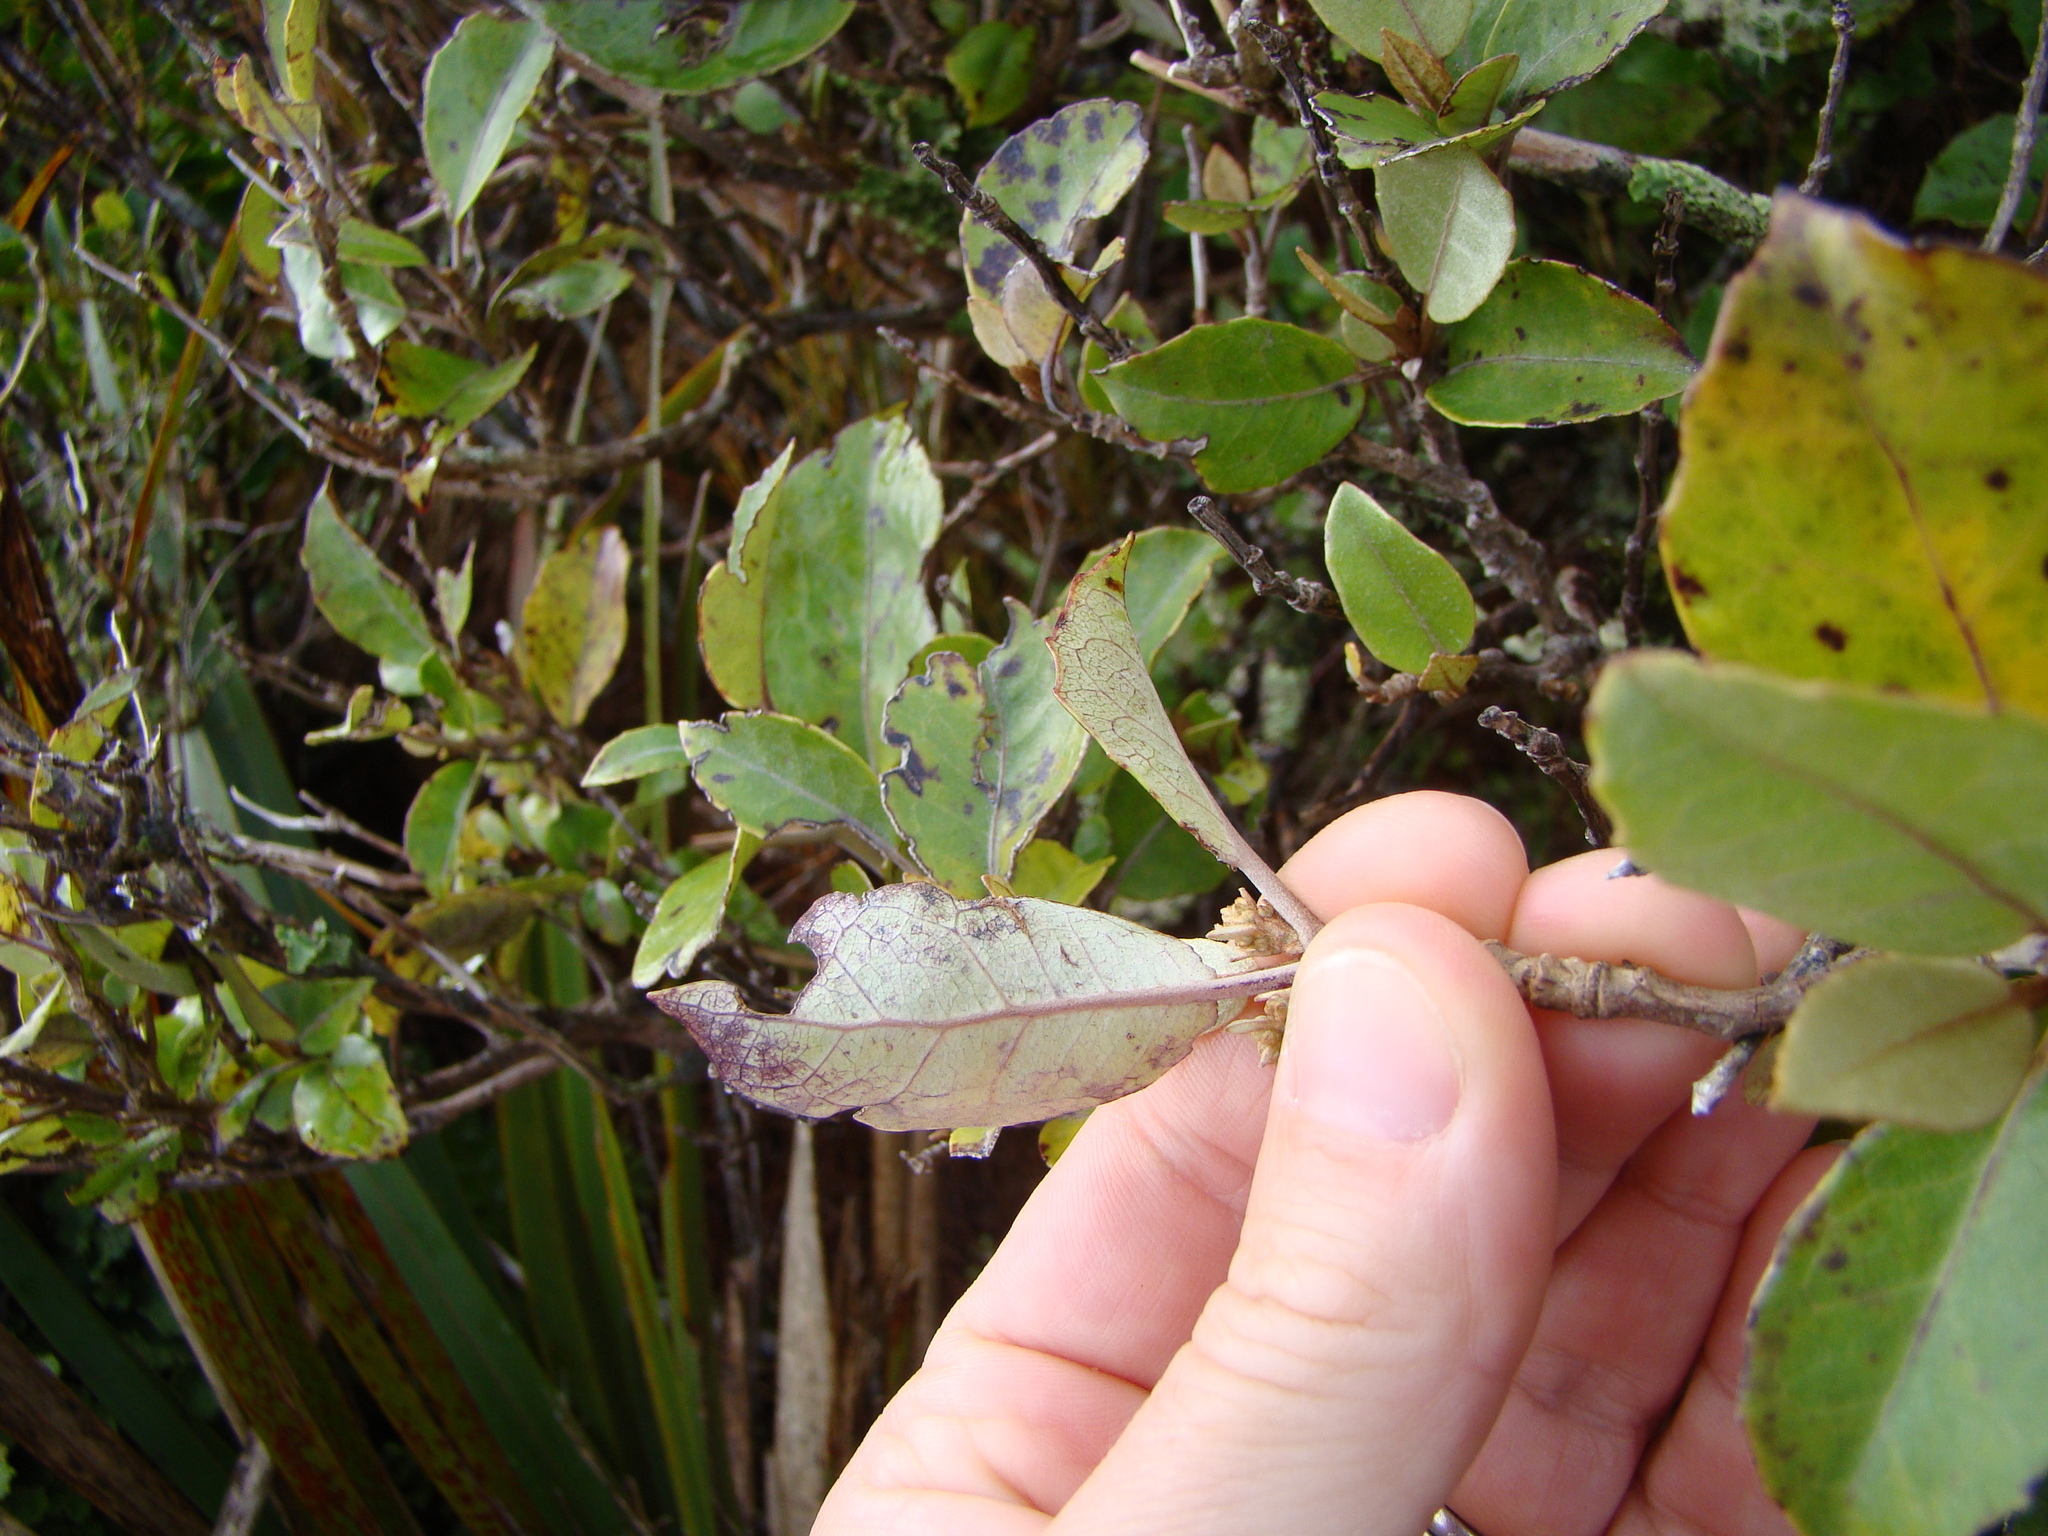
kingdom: Plantae
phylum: Tracheophyta
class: Magnoliopsida
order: Asterales
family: Asteraceae
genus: Olearia
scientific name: Olearia arborescens
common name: Glossy tree daisy
